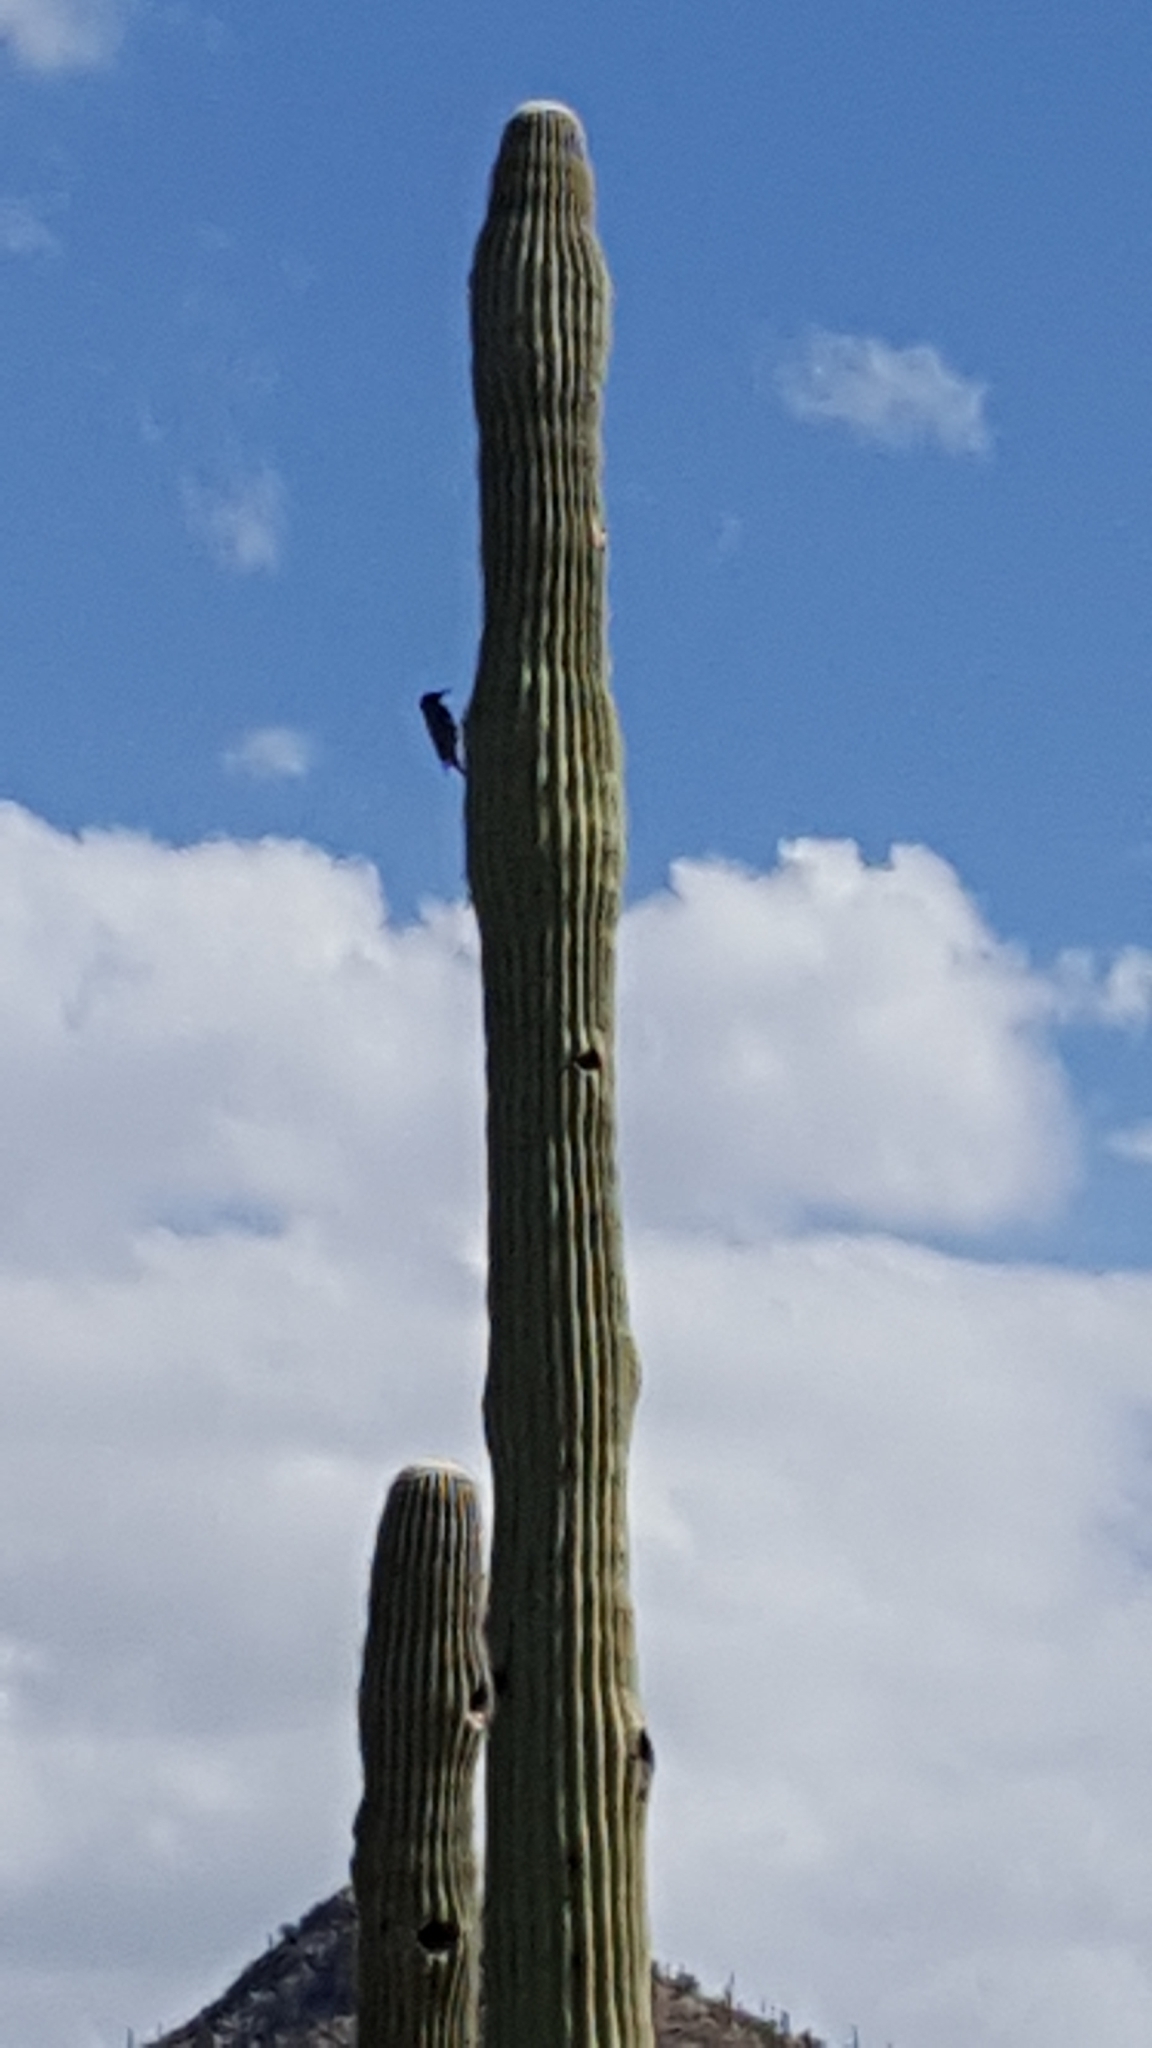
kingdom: Animalia
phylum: Chordata
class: Aves
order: Piciformes
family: Picidae
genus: Melanerpes
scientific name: Melanerpes uropygialis
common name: Gila woodpecker
